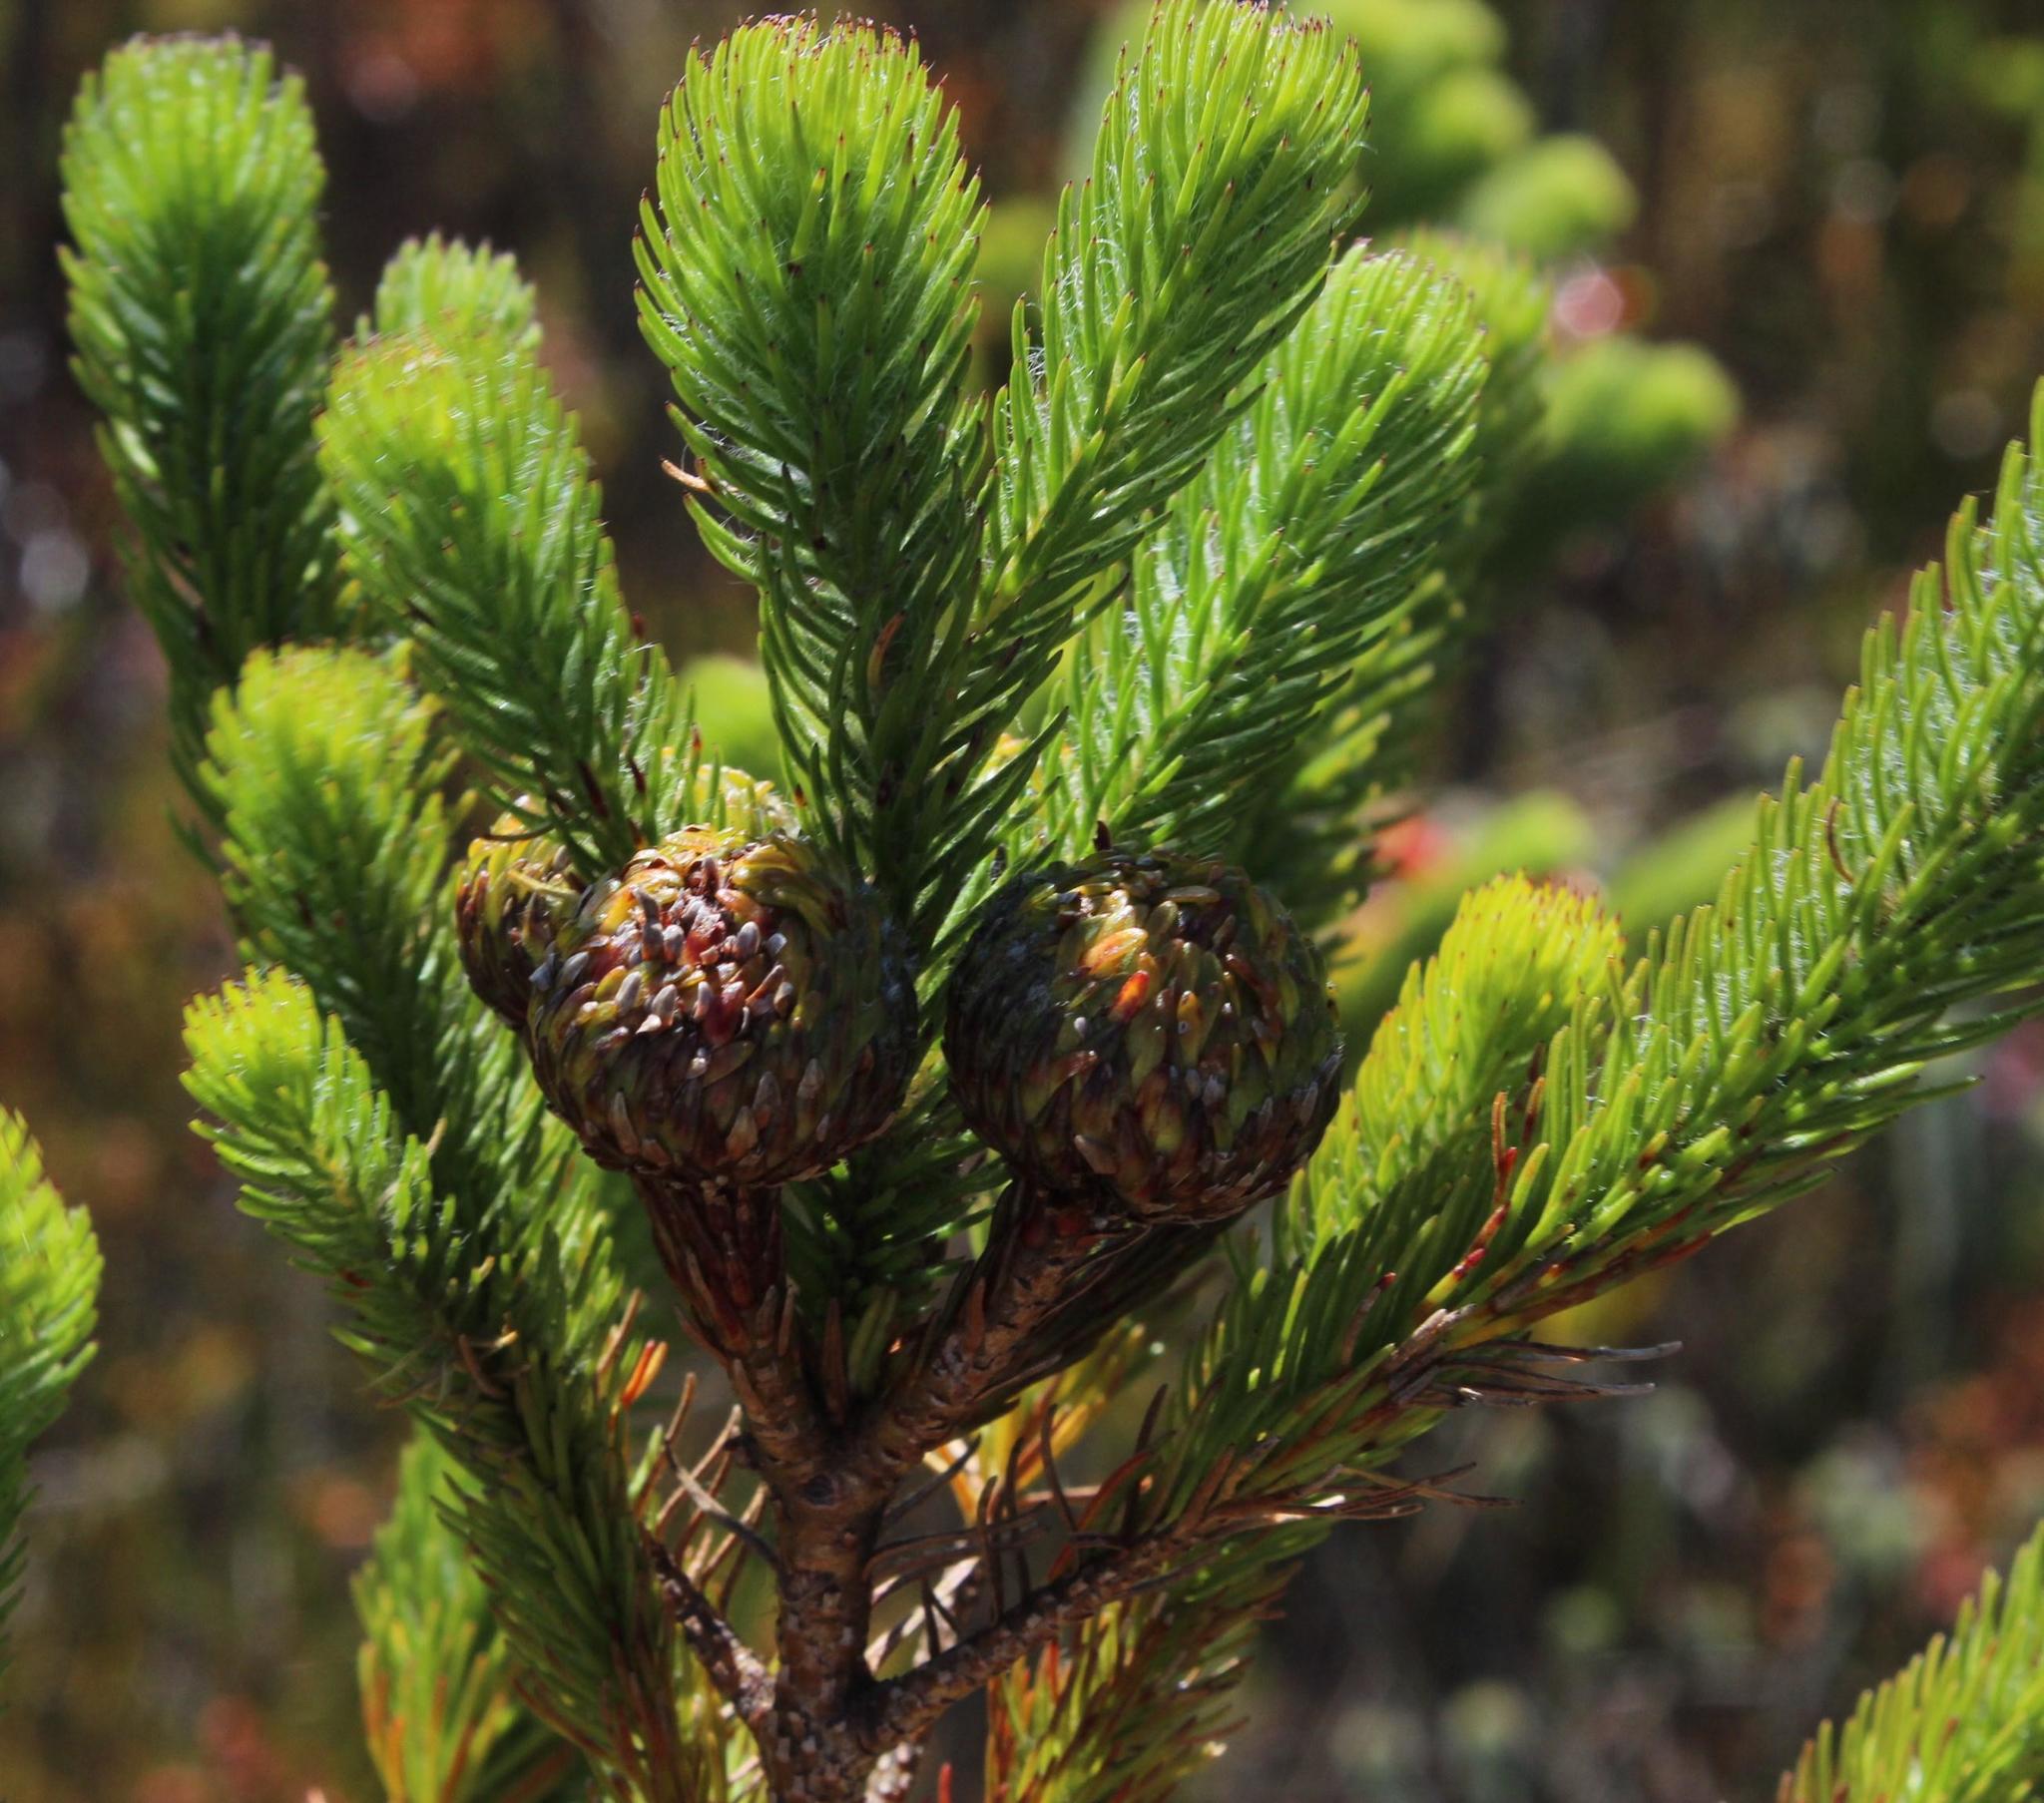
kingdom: Plantae
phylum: Tracheophyta
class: Magnoliopsida
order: Bruniales
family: Bruniaceae
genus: Berzelia
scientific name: Berzelia albiflora
